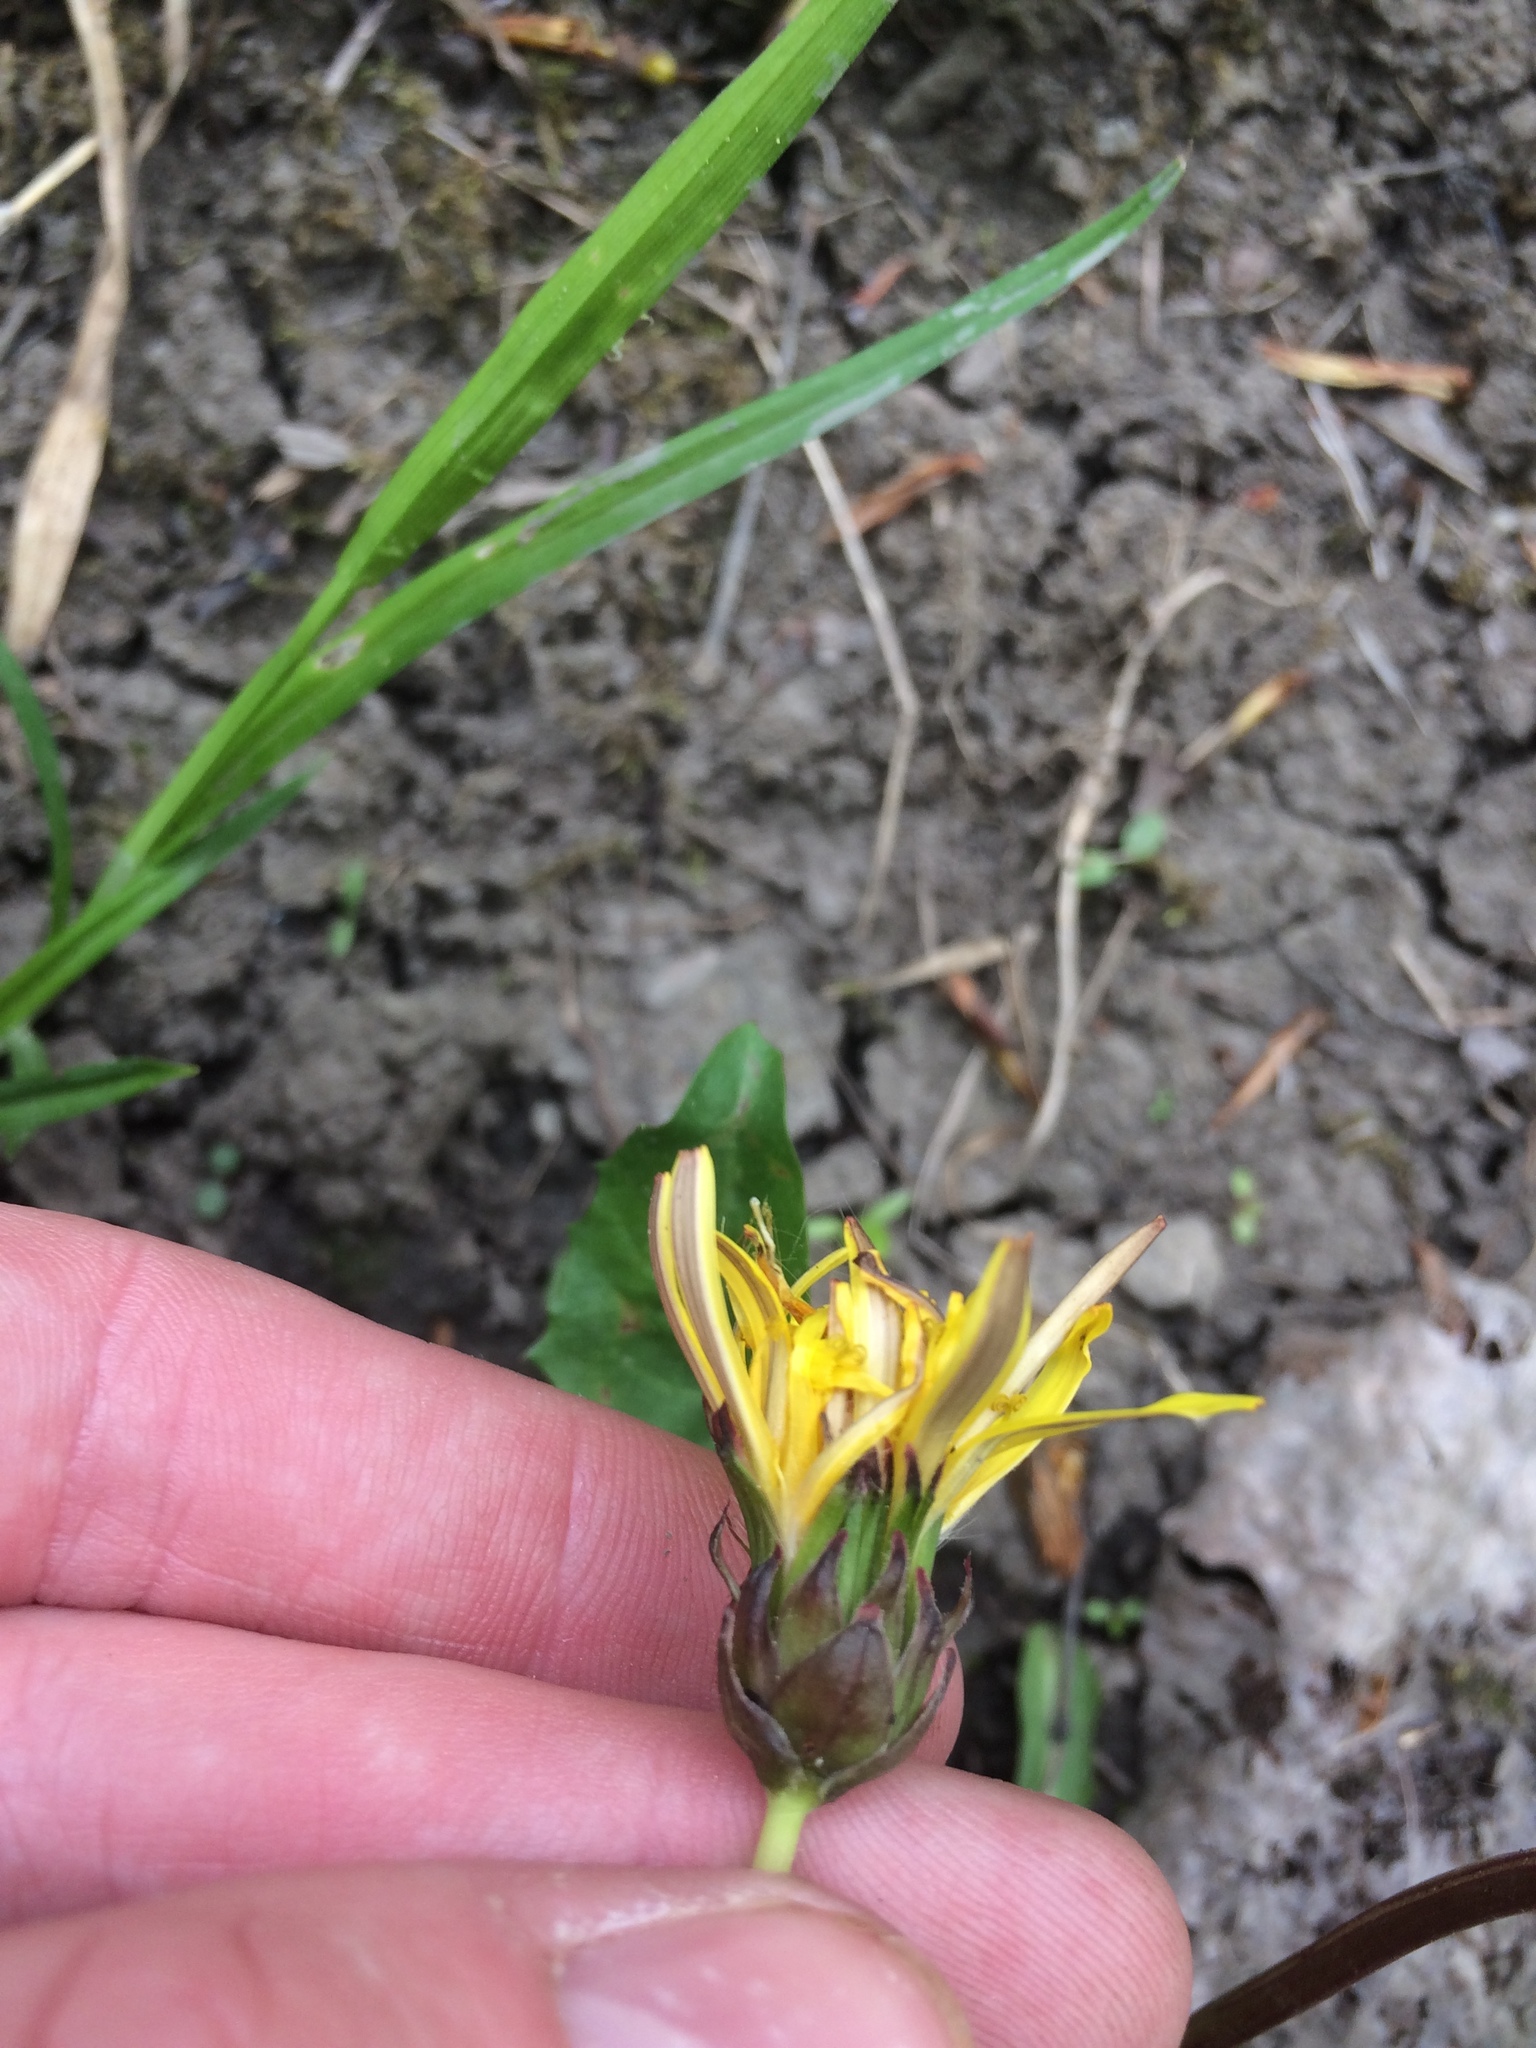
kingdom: Plantae
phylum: Tracheophyta
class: Magnoliopsida
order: Asterales
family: Asteraceae
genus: Taraxacum
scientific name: Taraxacum palustre
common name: Marsh dandelion
